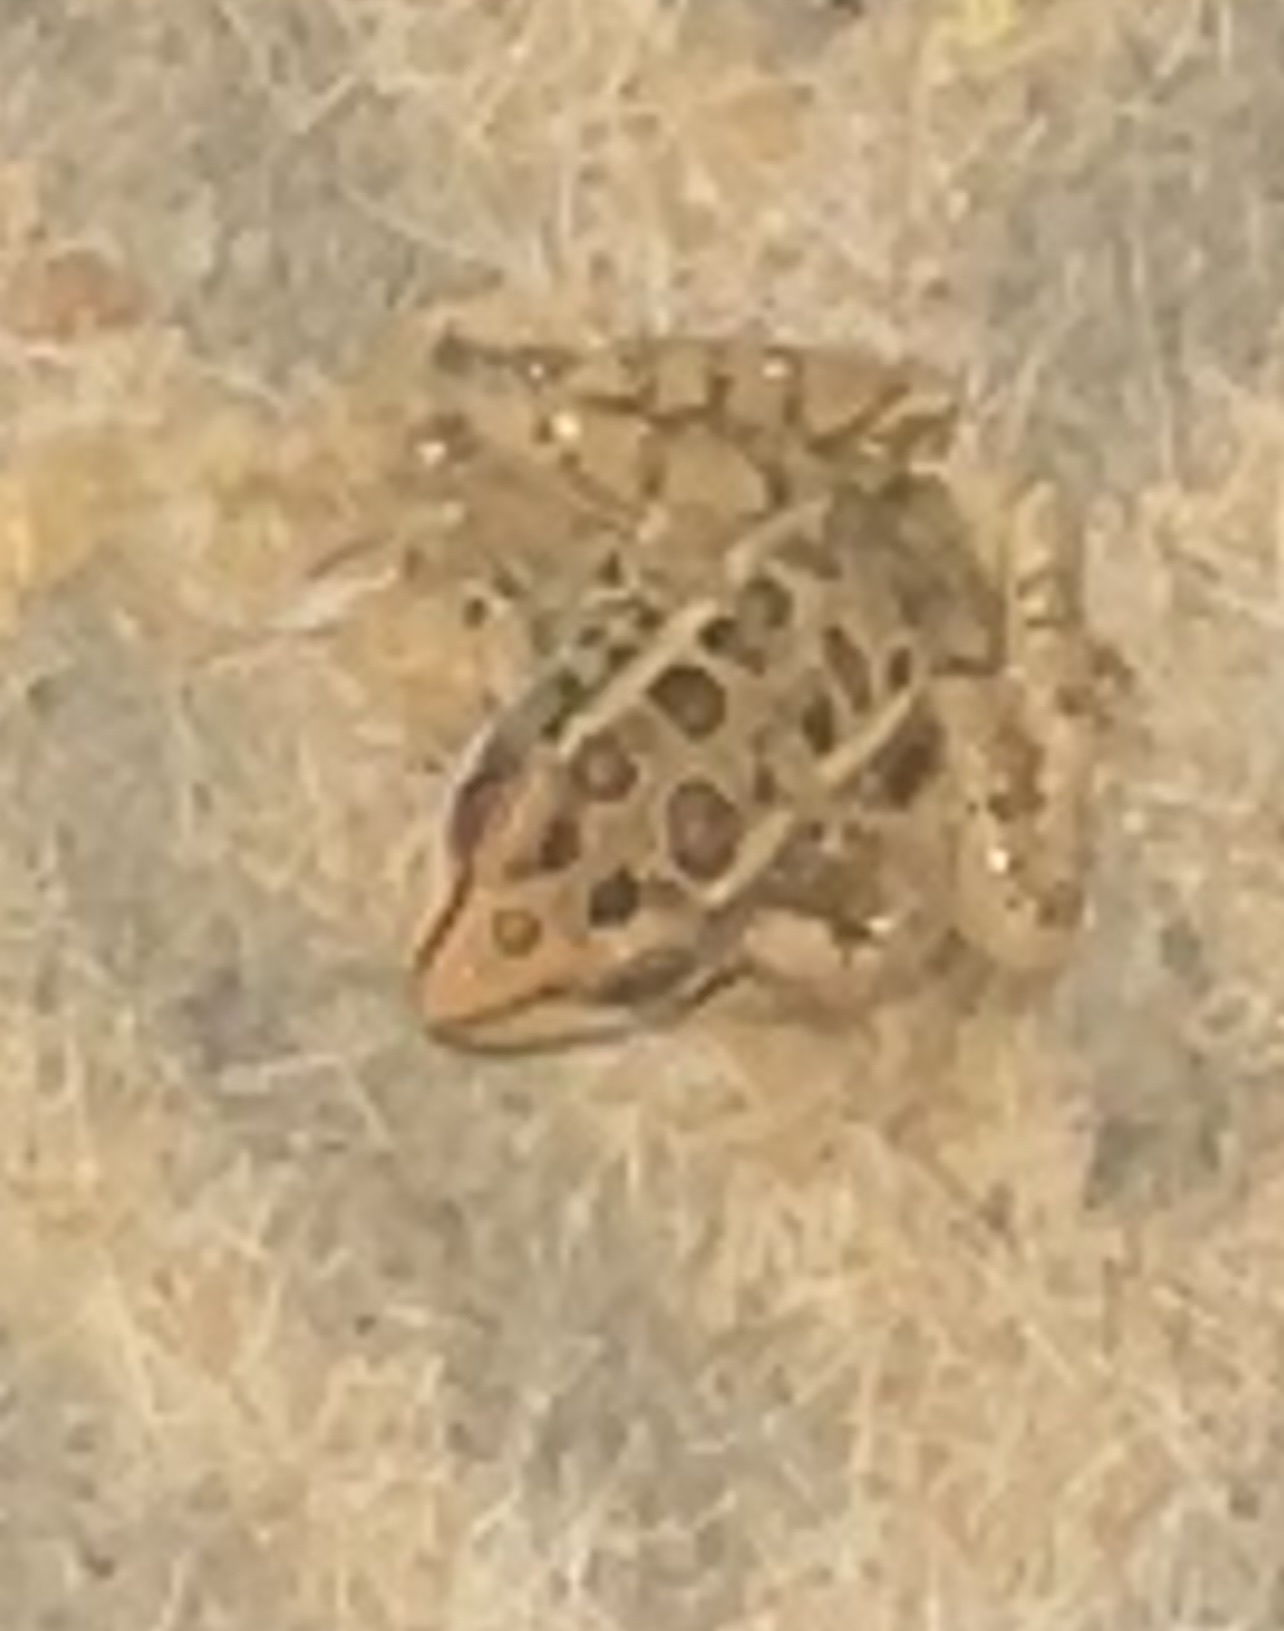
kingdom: Animalia
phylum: Chordata
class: Amphibia
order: Anura
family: Ranidae
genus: Lithobates
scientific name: Lithobates palustris
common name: Pickerel frog
